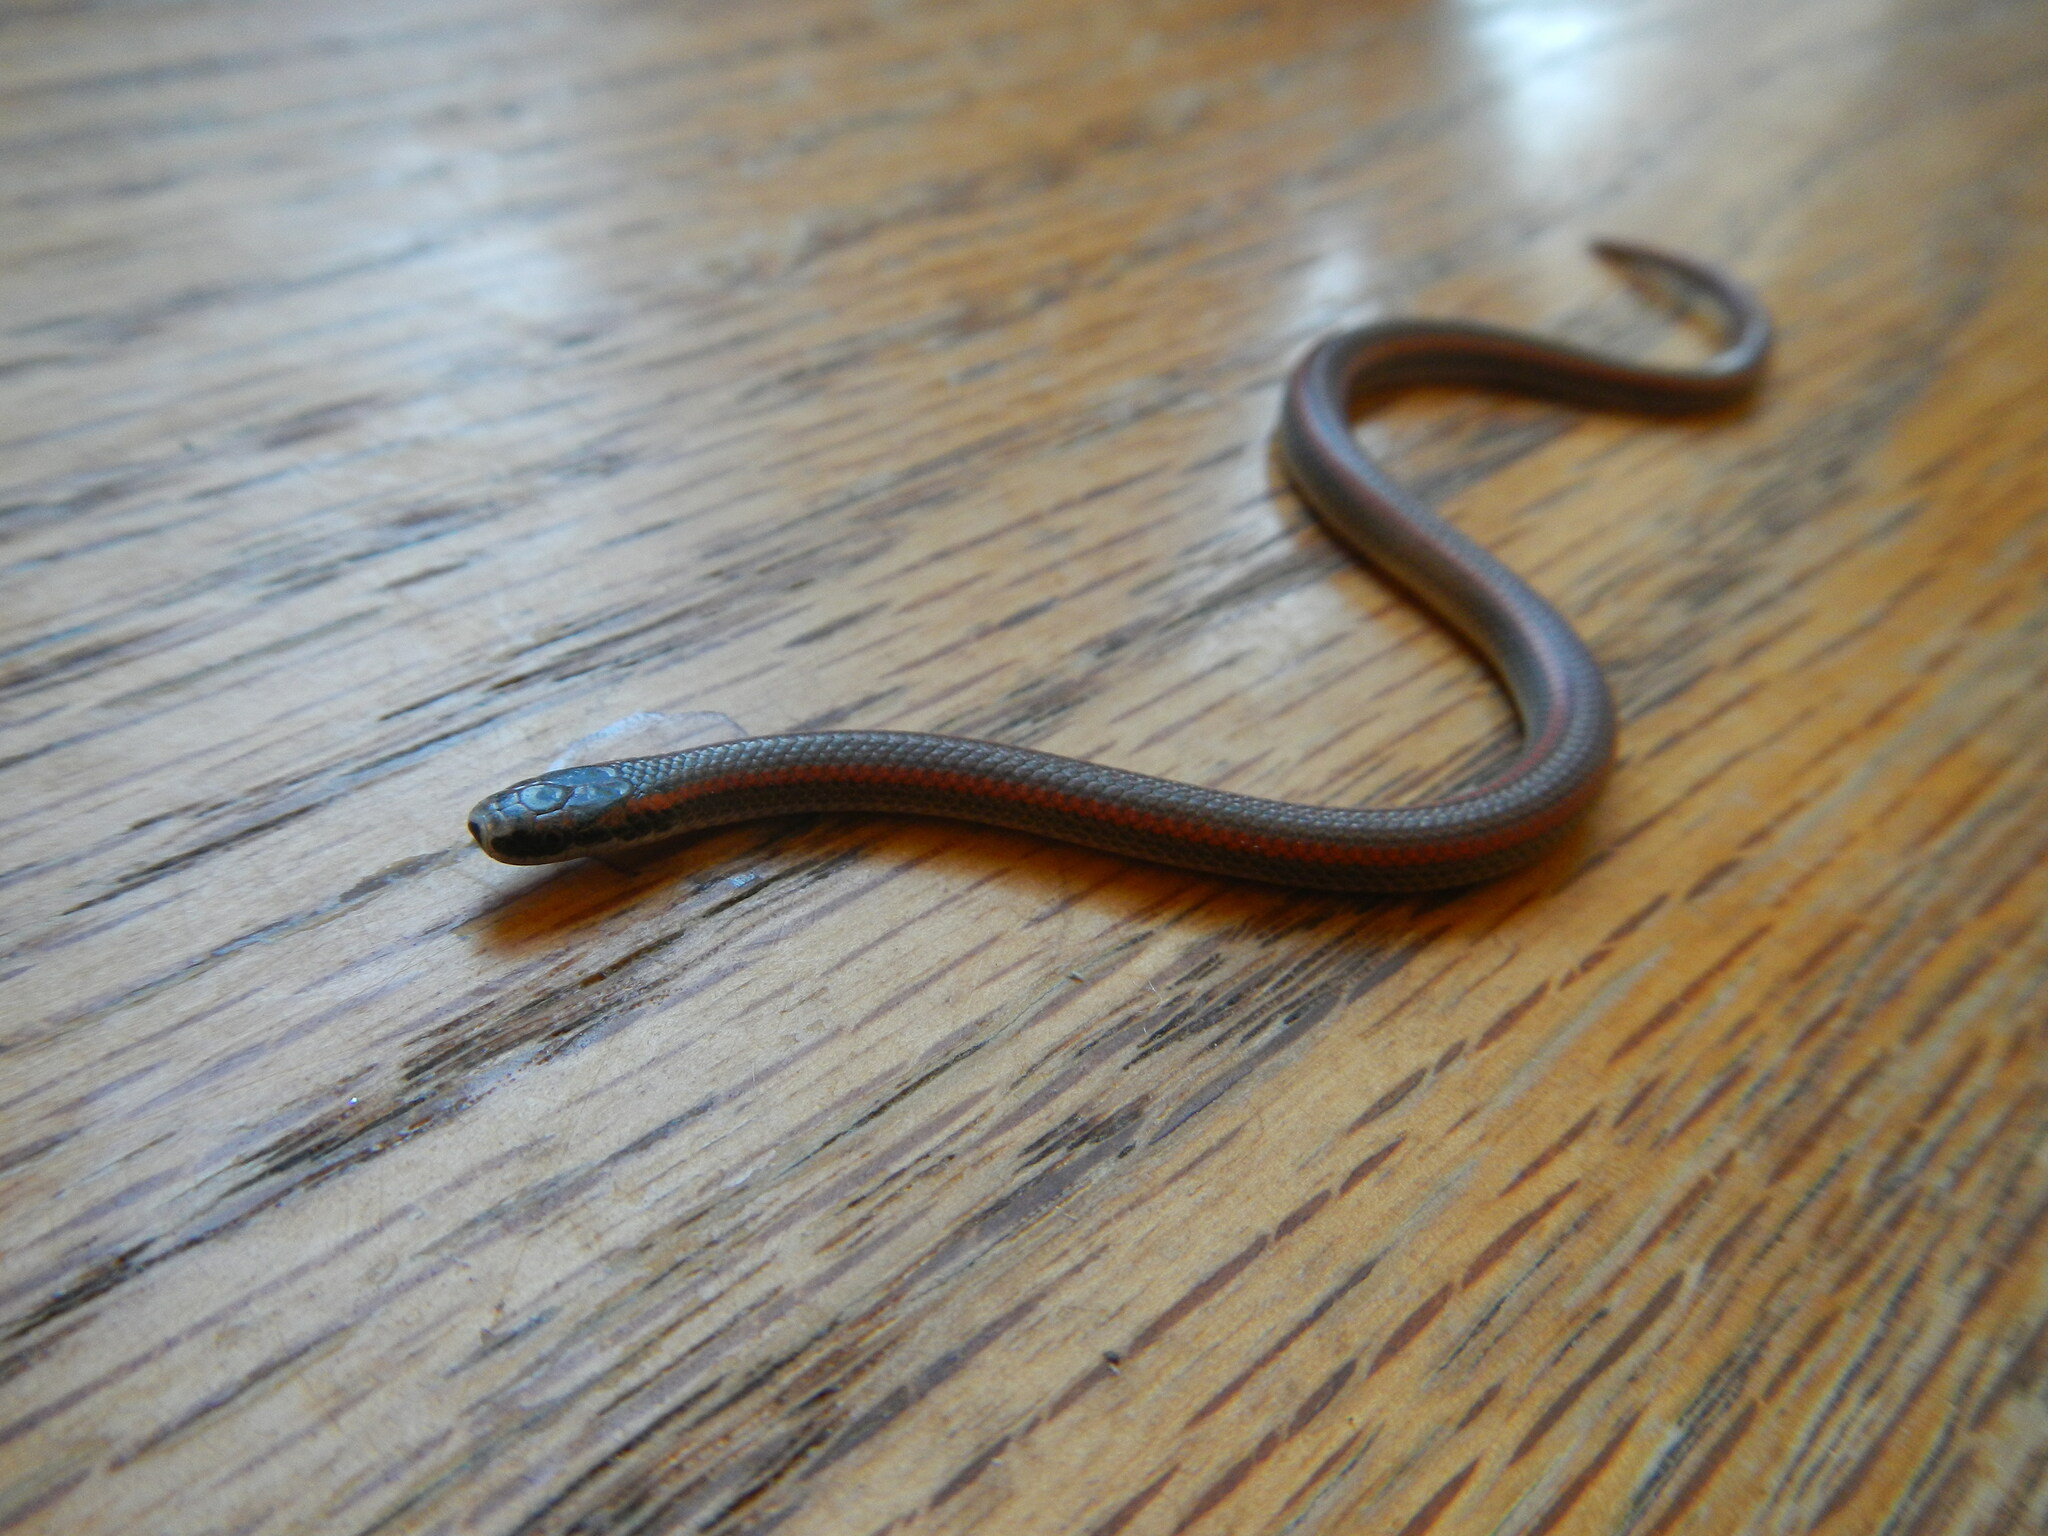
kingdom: Animalia
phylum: Chordata
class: Squamata
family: Colubridae
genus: Contia
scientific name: Contia tenuis
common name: Sharptail snake
